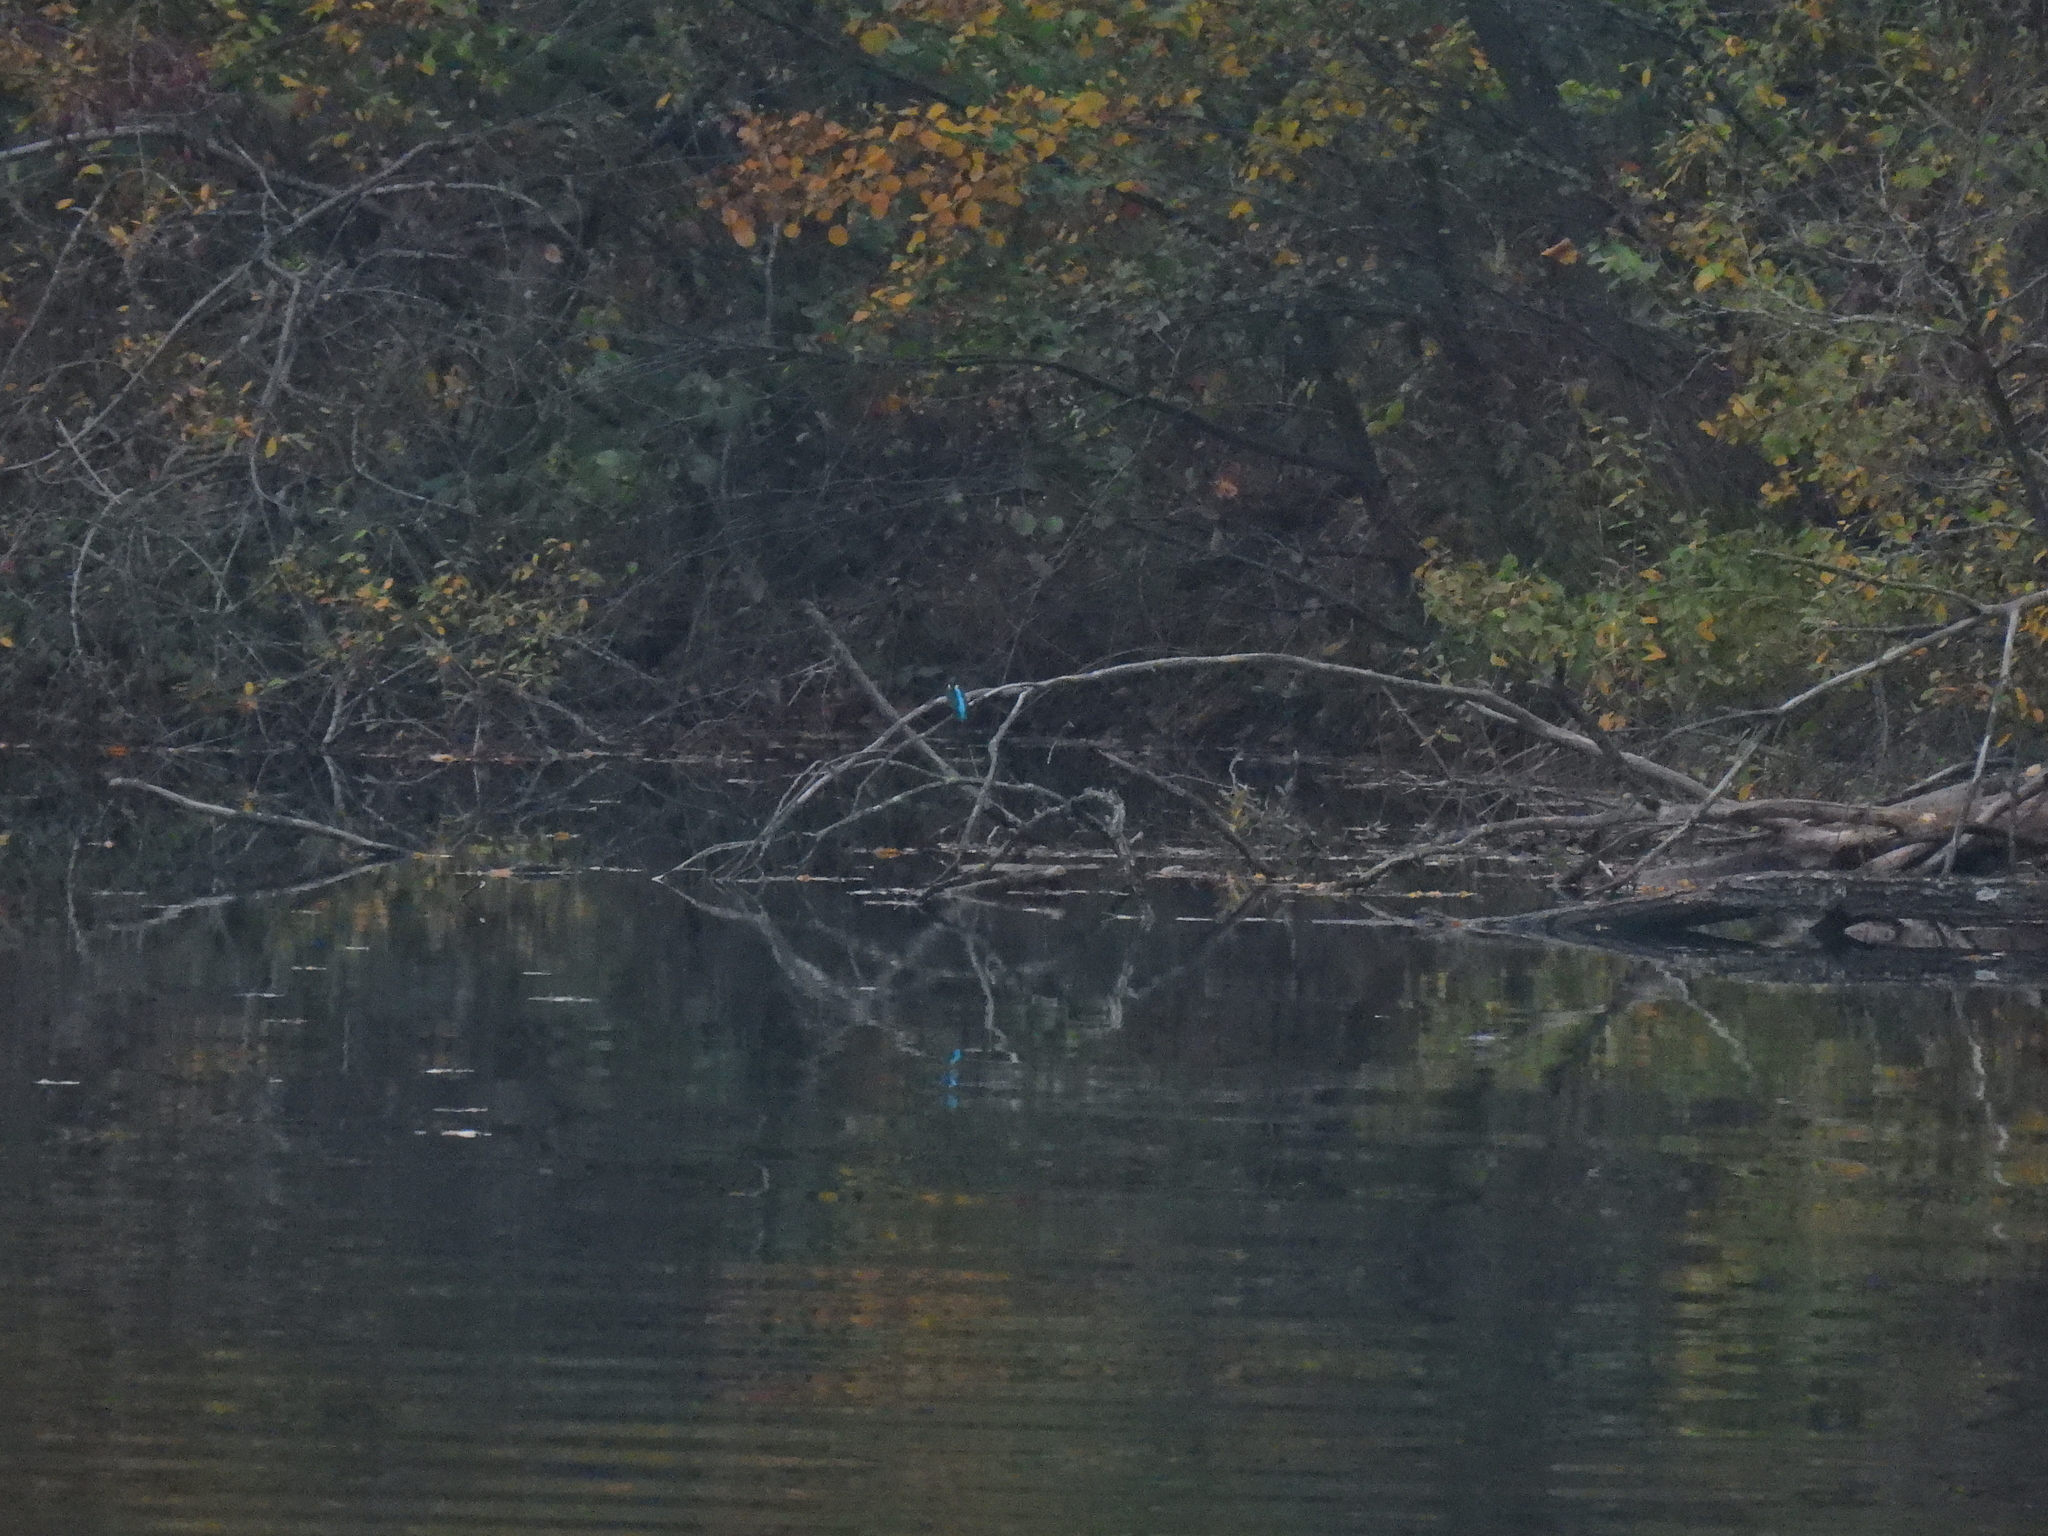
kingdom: Animalia
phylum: Chordata
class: Aves
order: Coraciiformes
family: Alcedinidae
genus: Alcedo
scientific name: Alcedo atthis
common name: Common kingfisher
